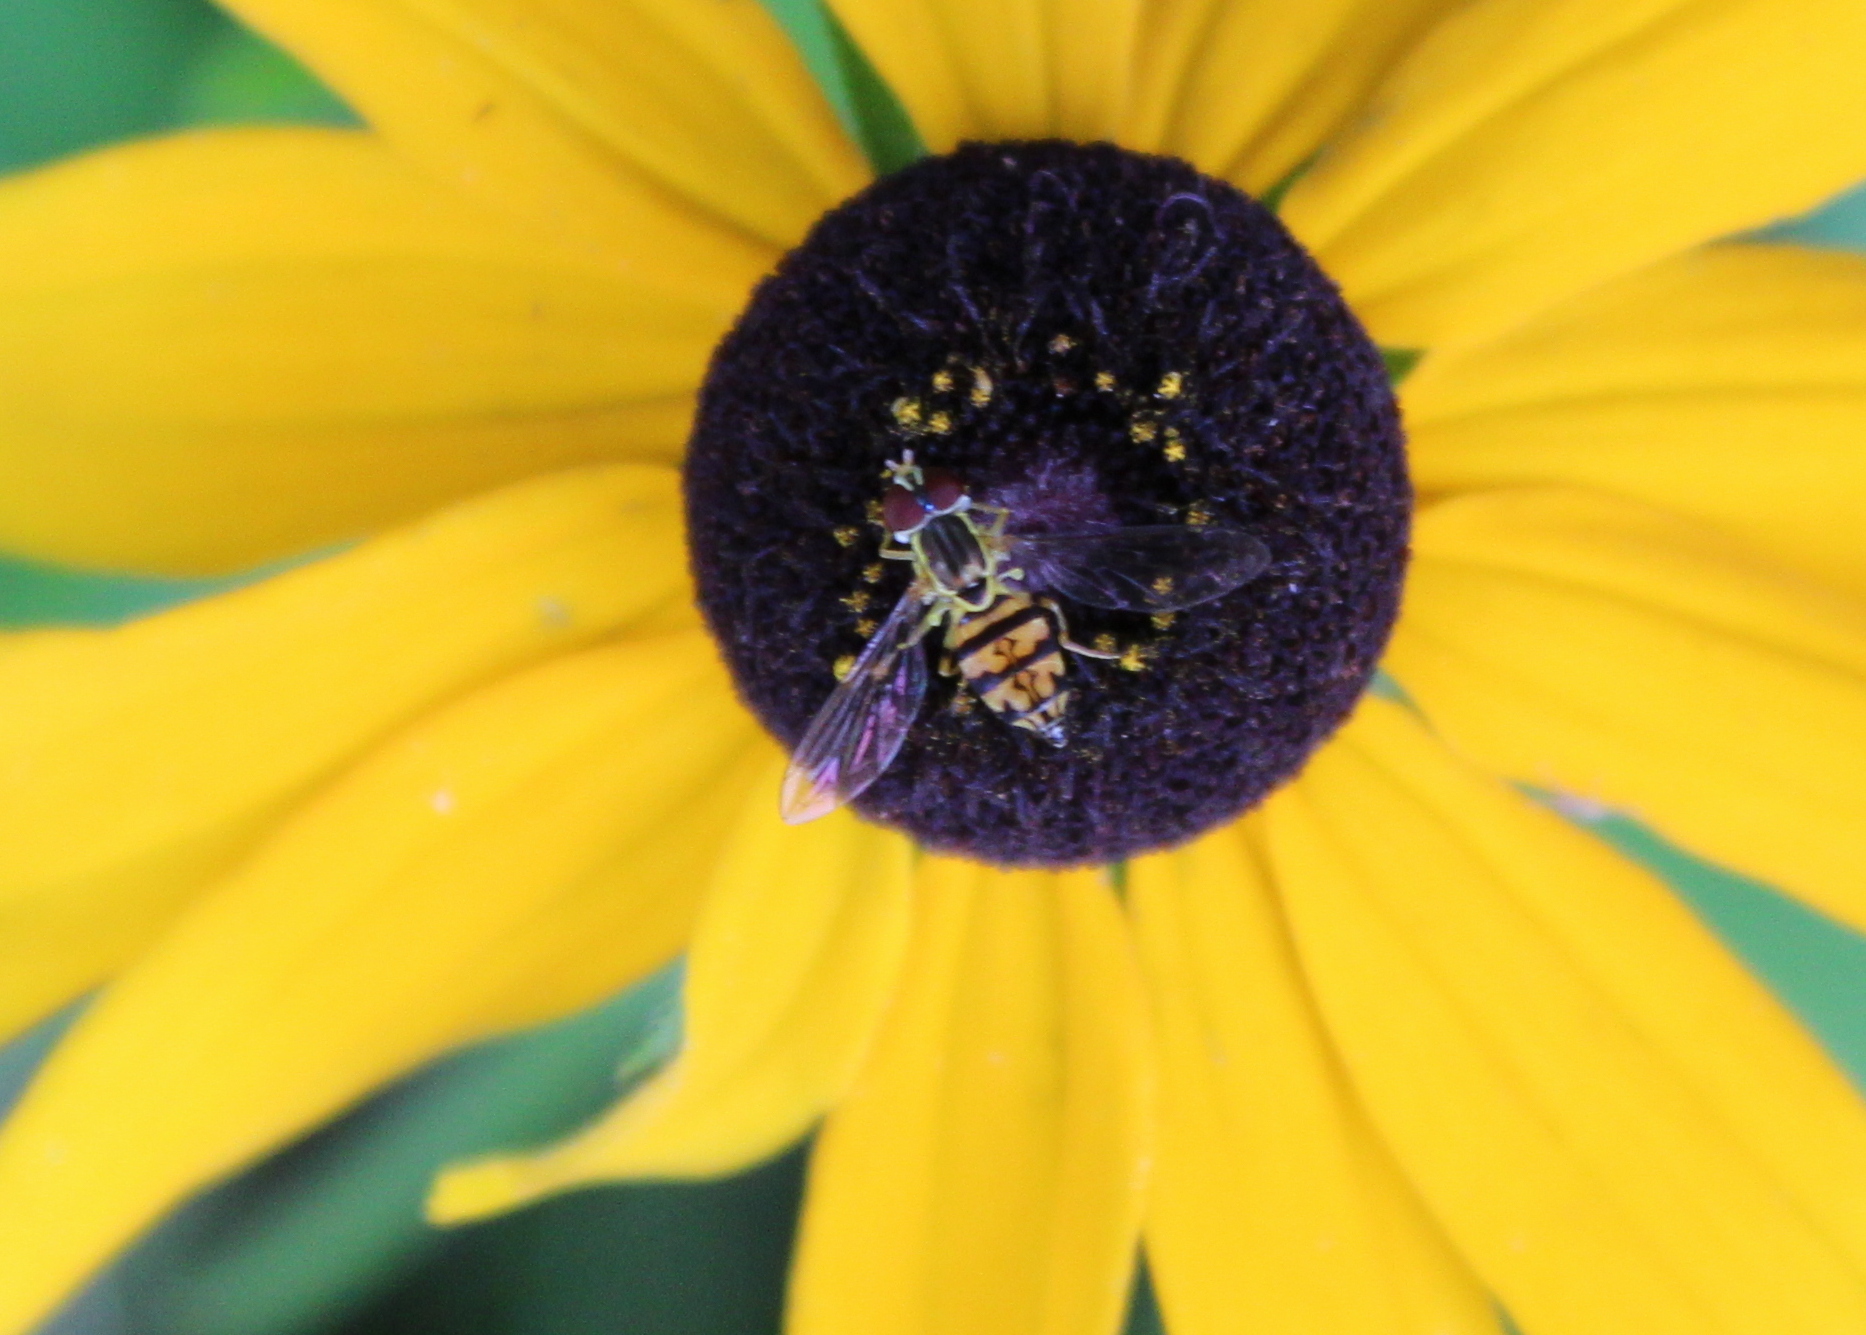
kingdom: Animalia
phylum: Arthropoda
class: Insecta
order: Diptera
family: Syrphidae
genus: Toxomerus
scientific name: Toxomerus geminatus
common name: Eastern calligrapher
